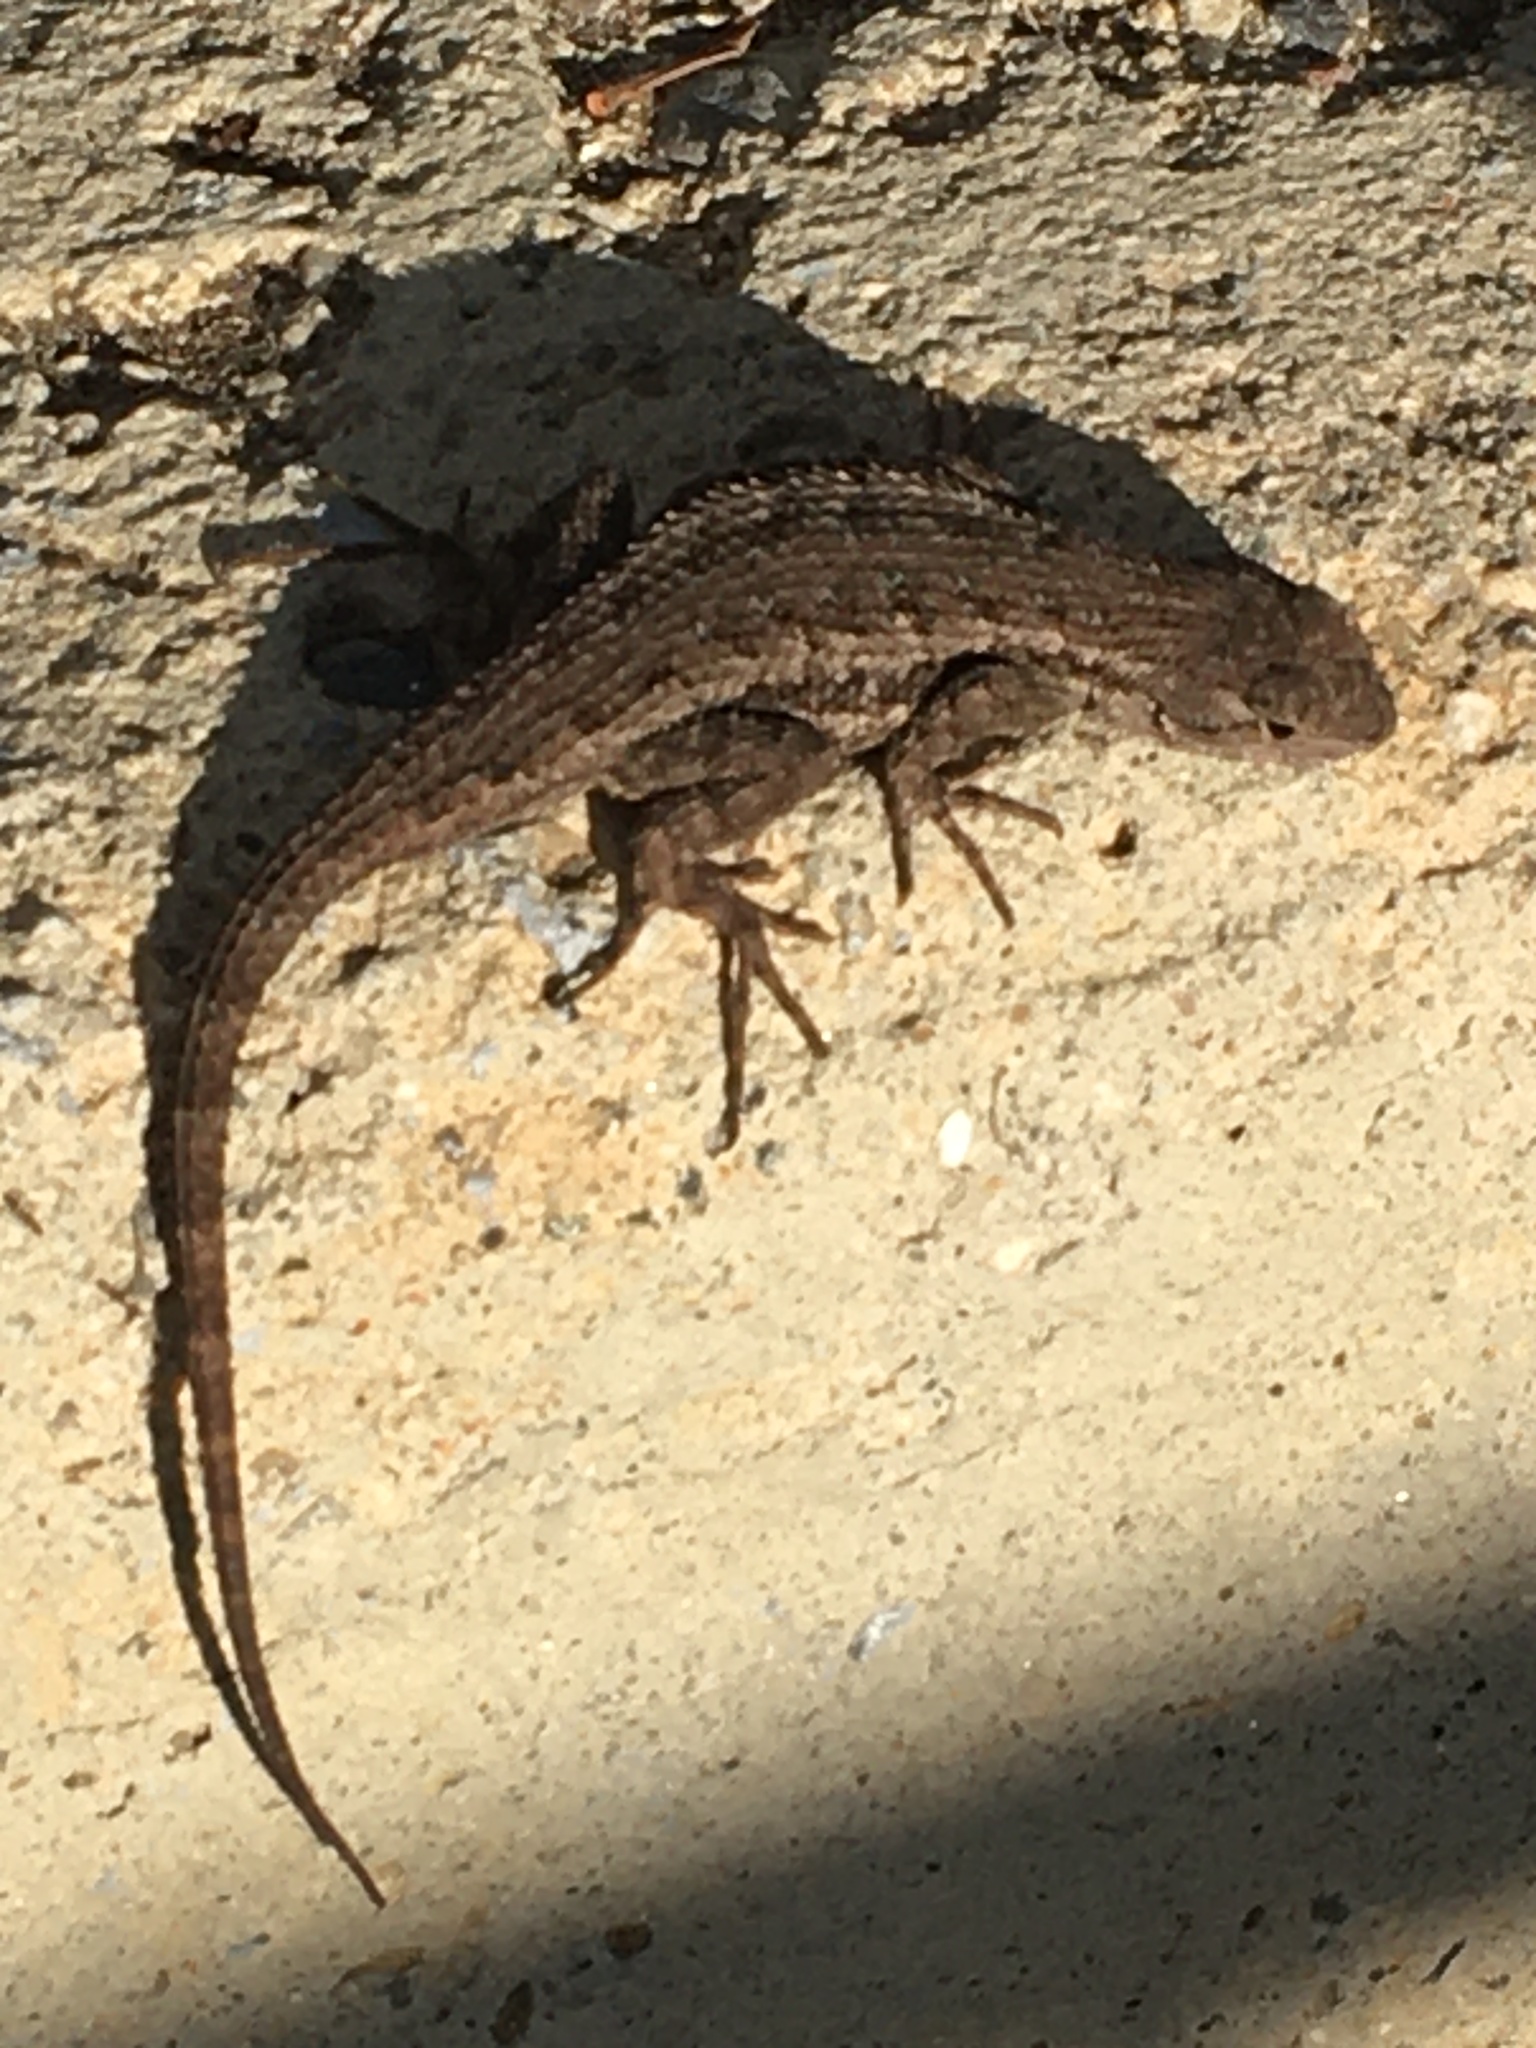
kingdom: Animalia
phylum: Chordata
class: Squamata
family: Phrynosomatidae
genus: Sceloporus
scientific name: Sceloporus occidentalis
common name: Western fence lizard
